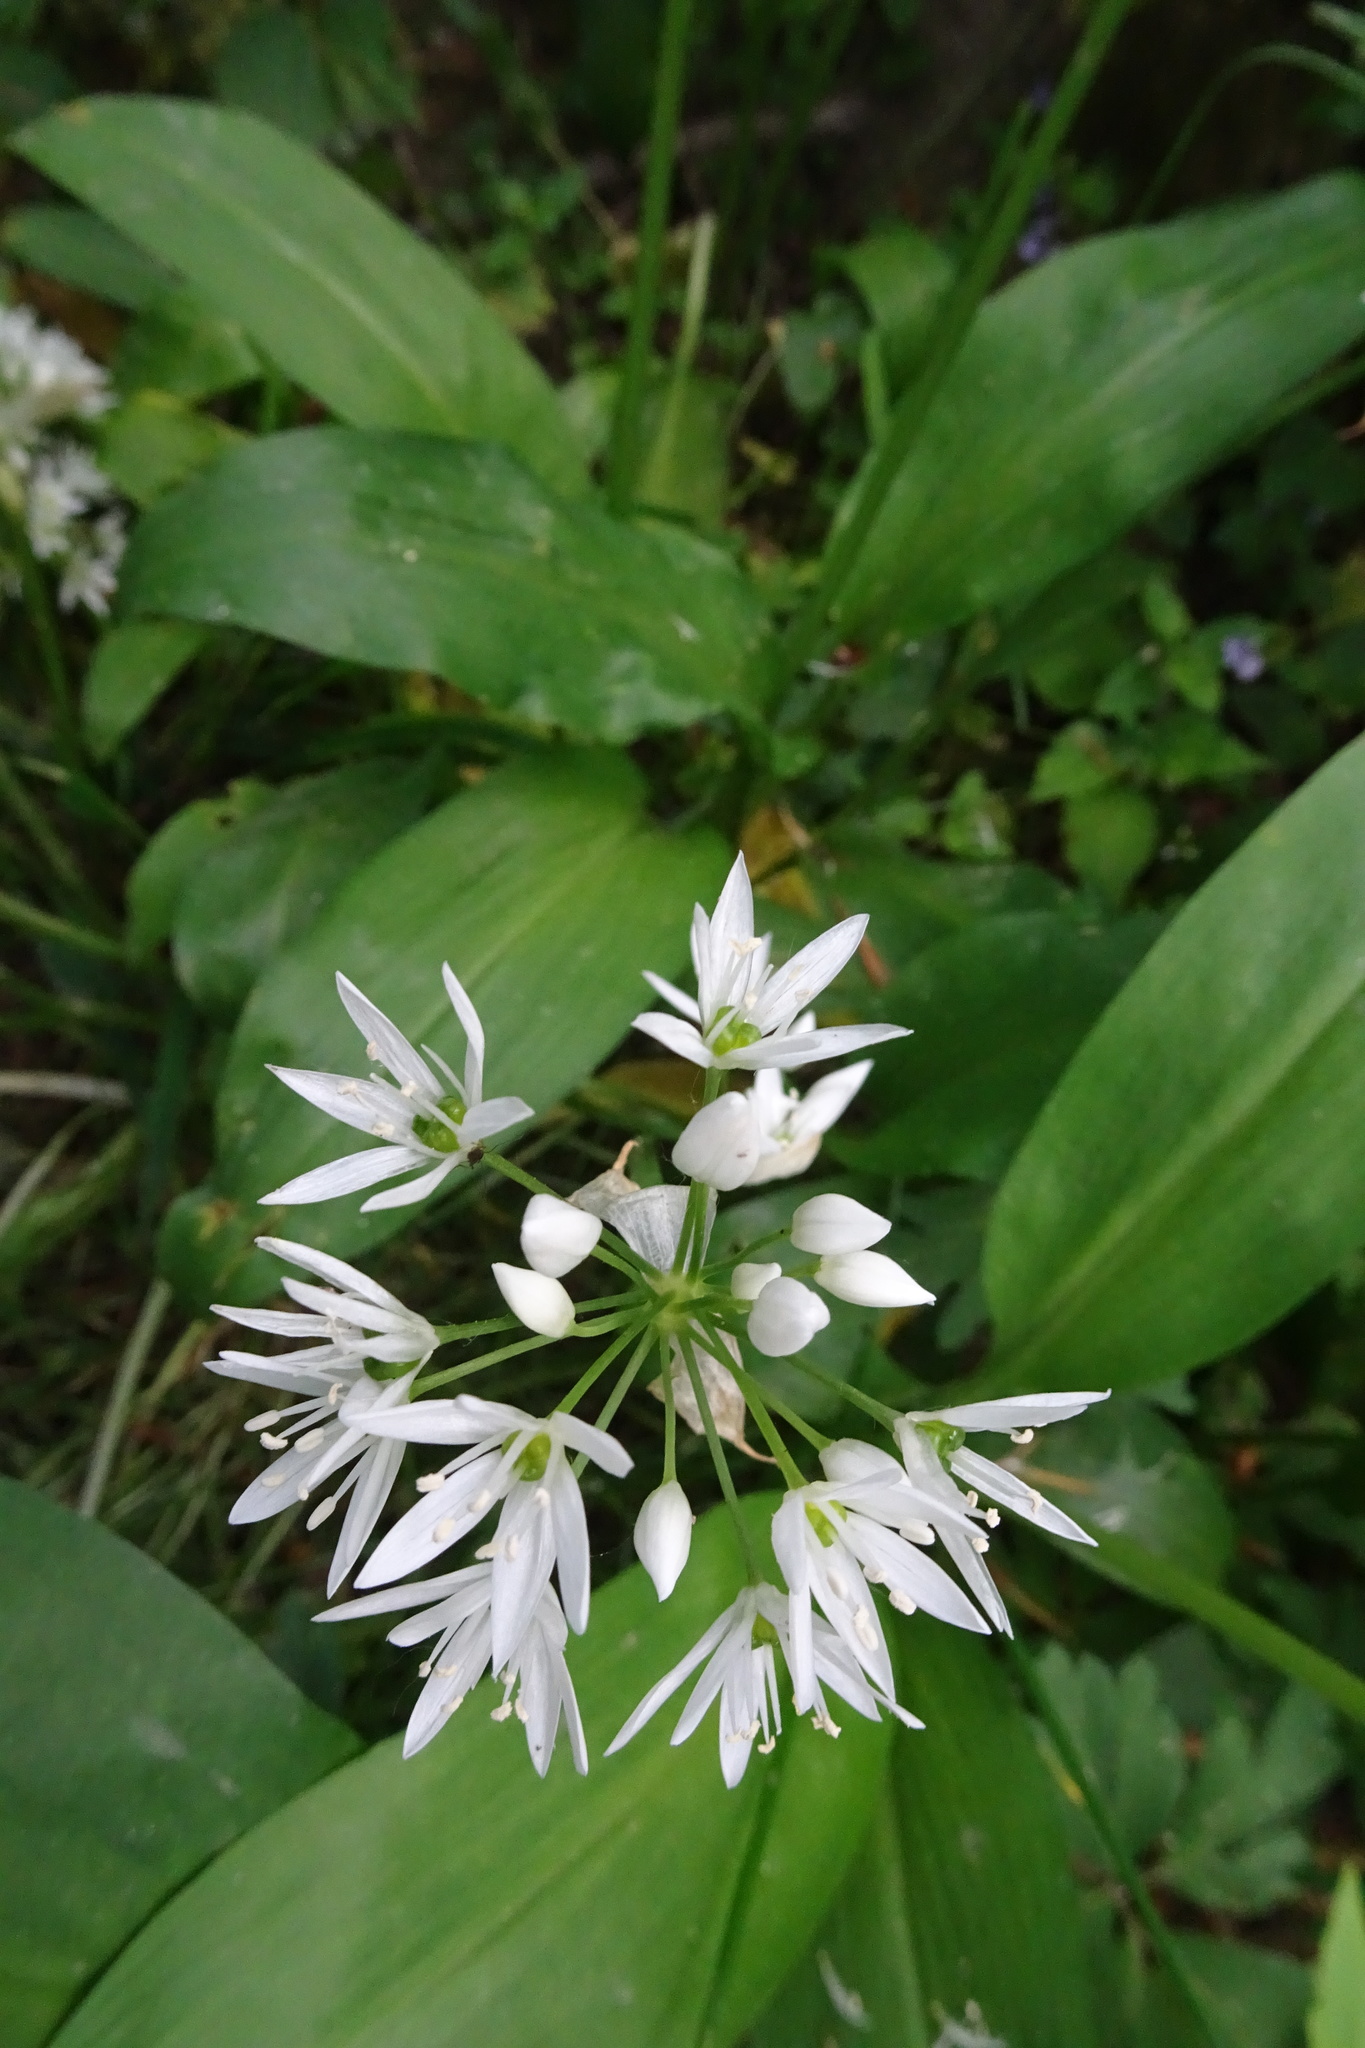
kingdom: Plantae
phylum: Tracheophyta
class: Liliopsida
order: Asparagales
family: Amaryllidaceae
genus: Allium
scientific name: Allium ursinum
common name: Ramsons
